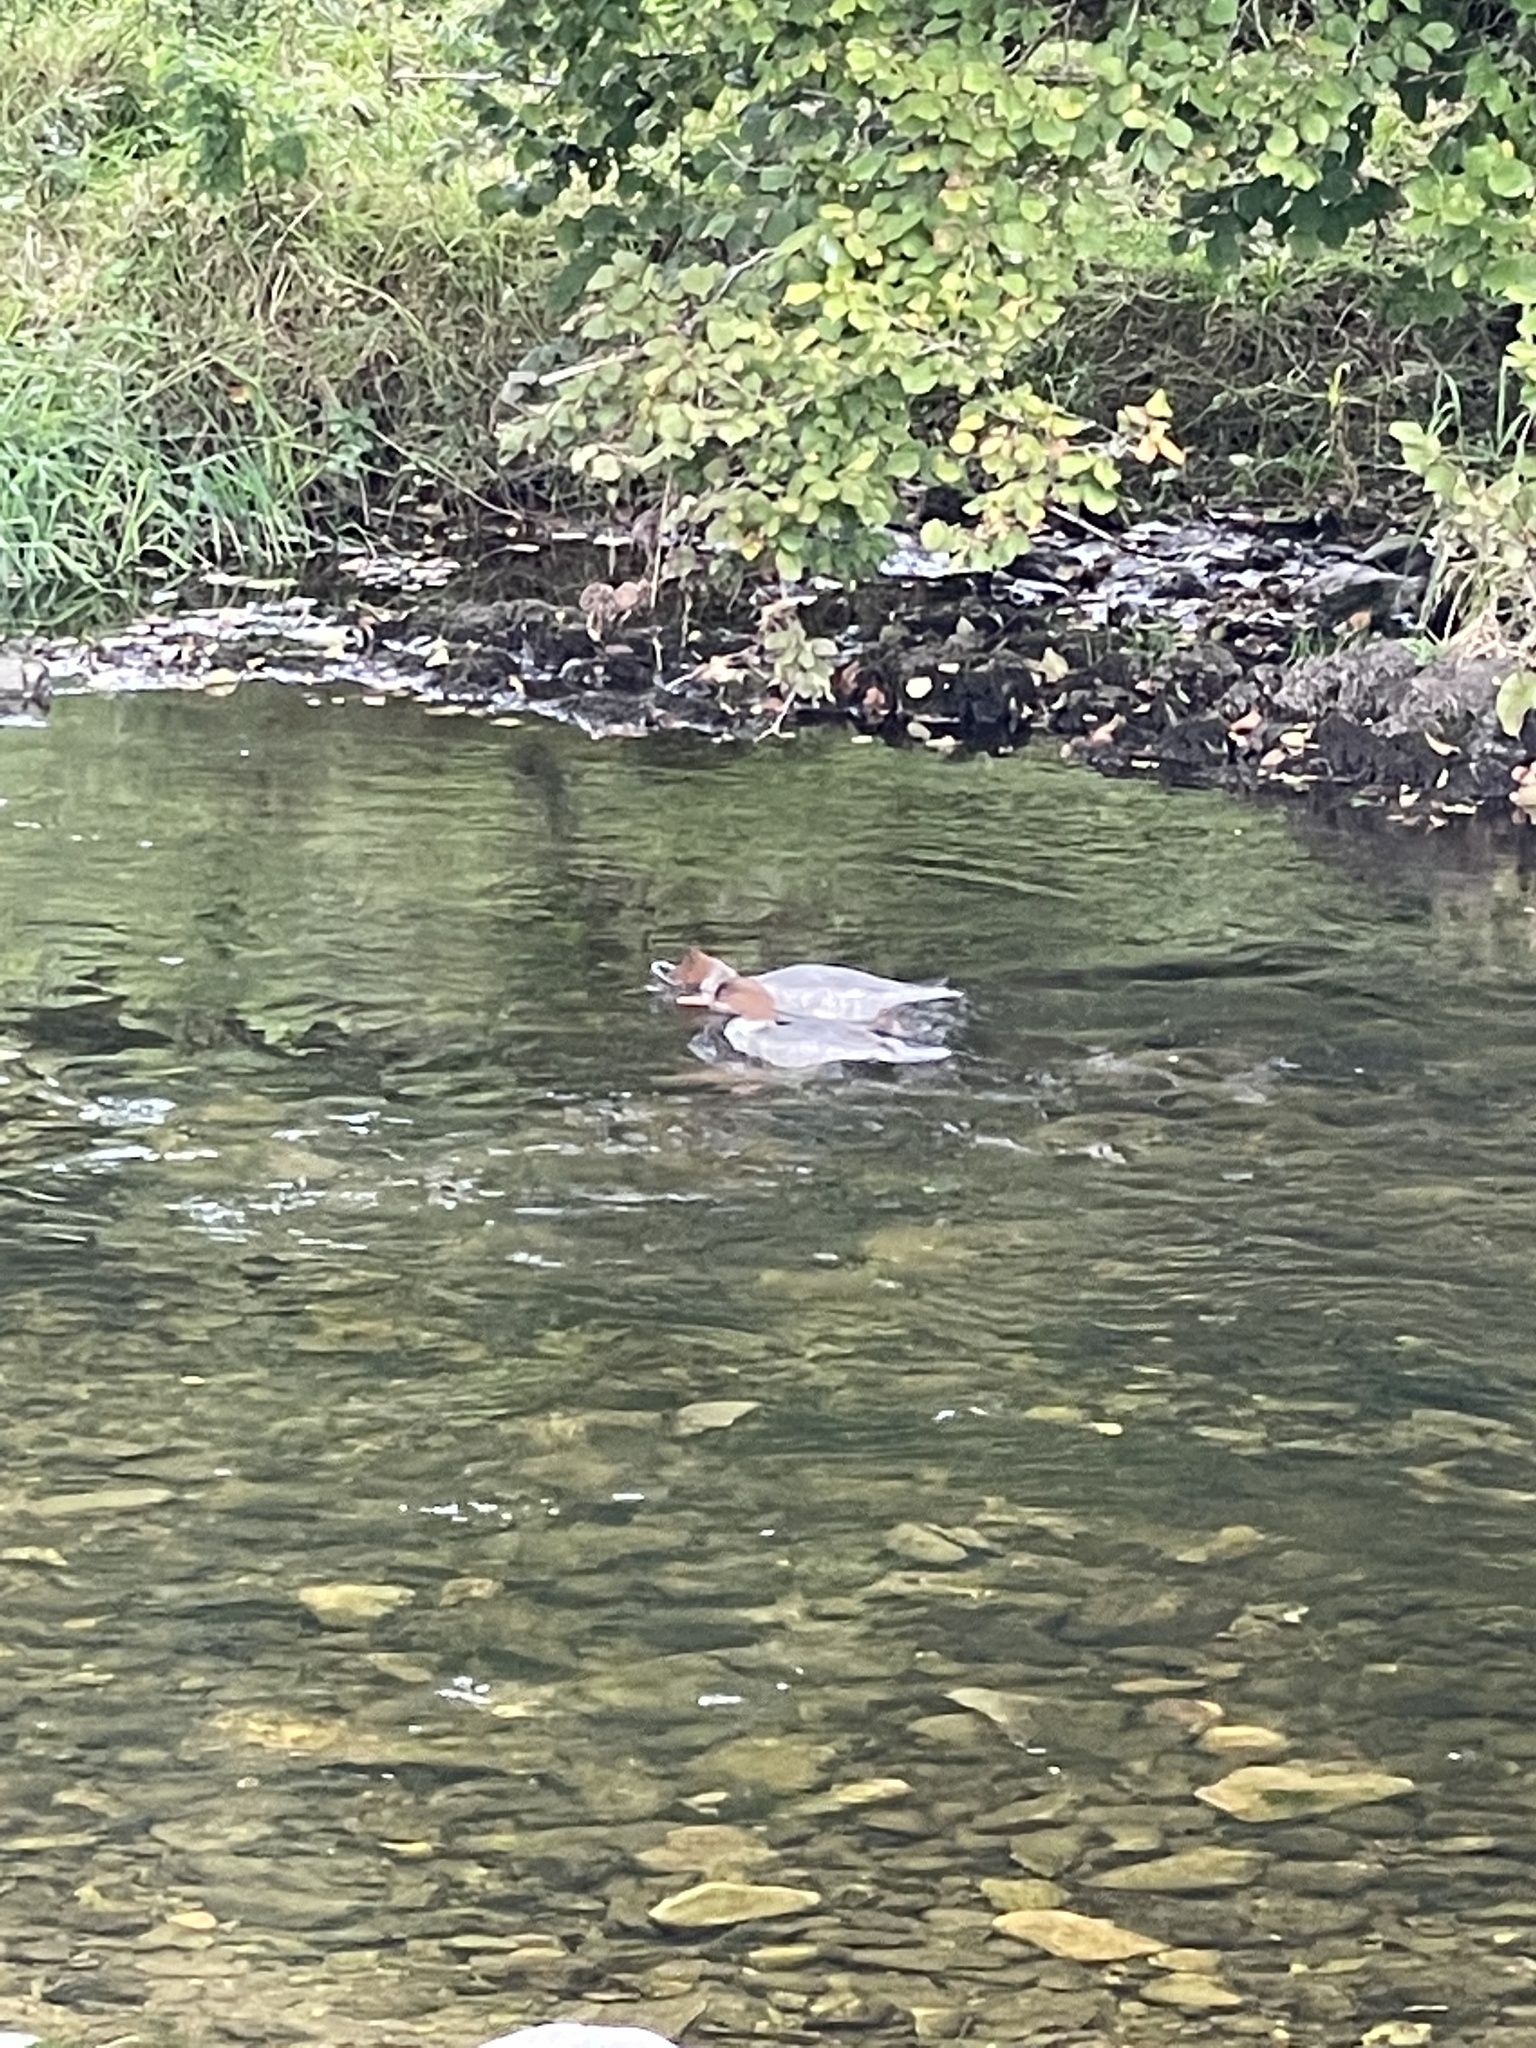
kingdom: Animalia
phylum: Chordata
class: Aves
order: Anseriformes
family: Anatidae
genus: Mergus
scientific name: Mergus merganser
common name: Common merganser
